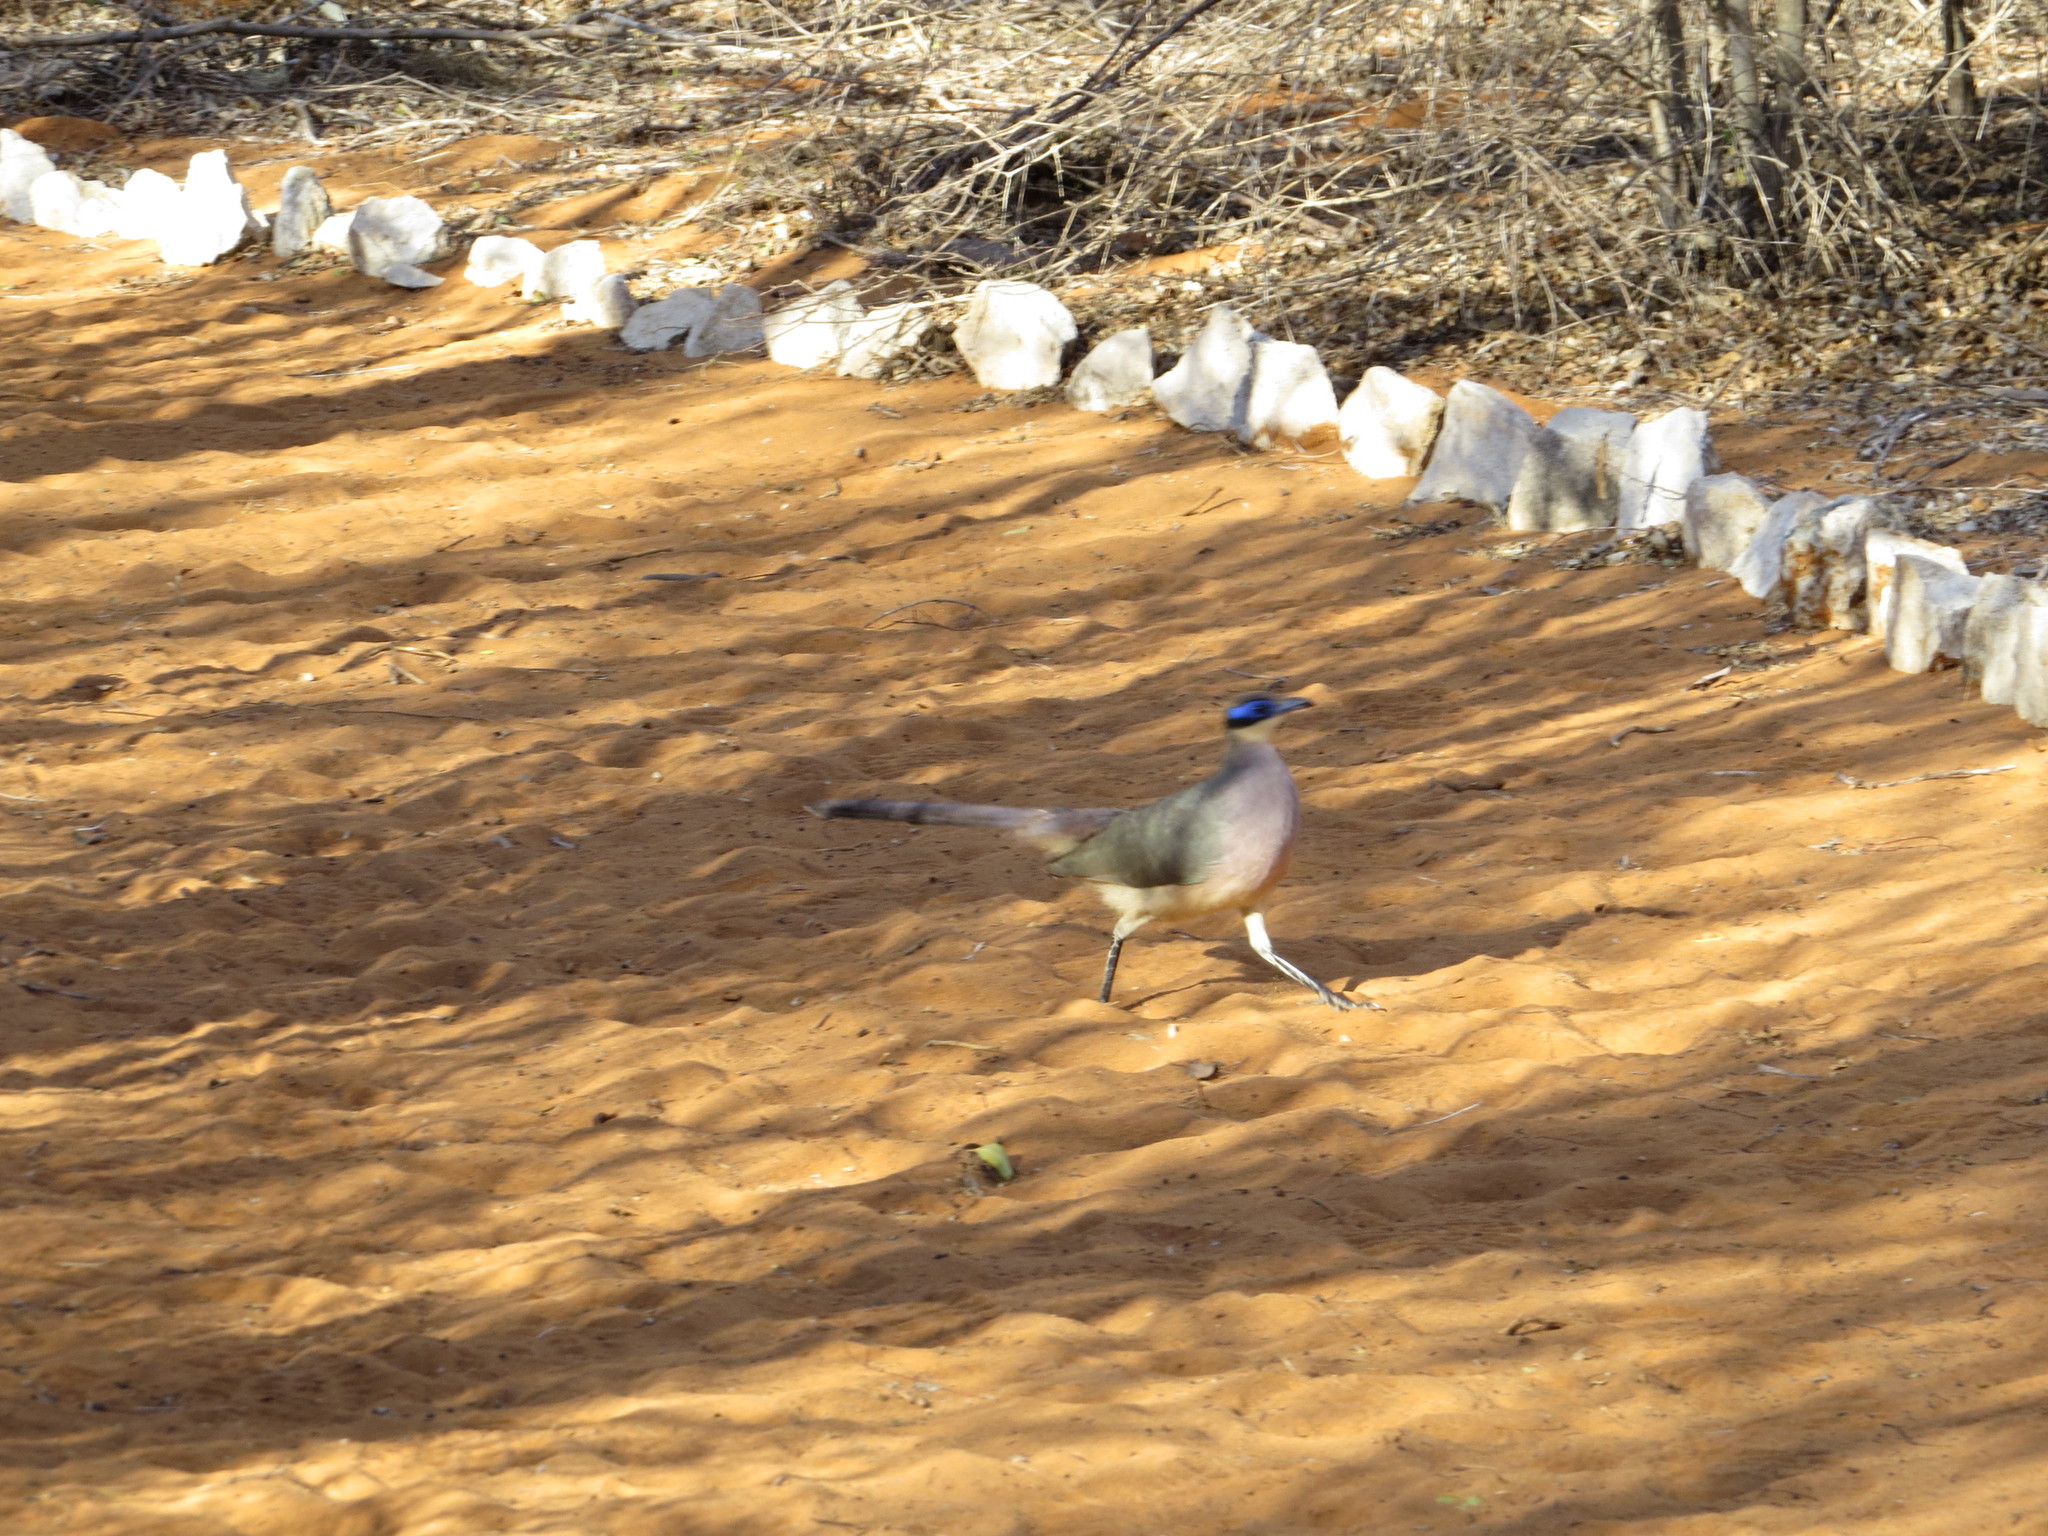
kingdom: Animalia
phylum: Chordata
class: Aves
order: Cuculiformes
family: Cuculidae
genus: Coua
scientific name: Coua cursor
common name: Running coua
